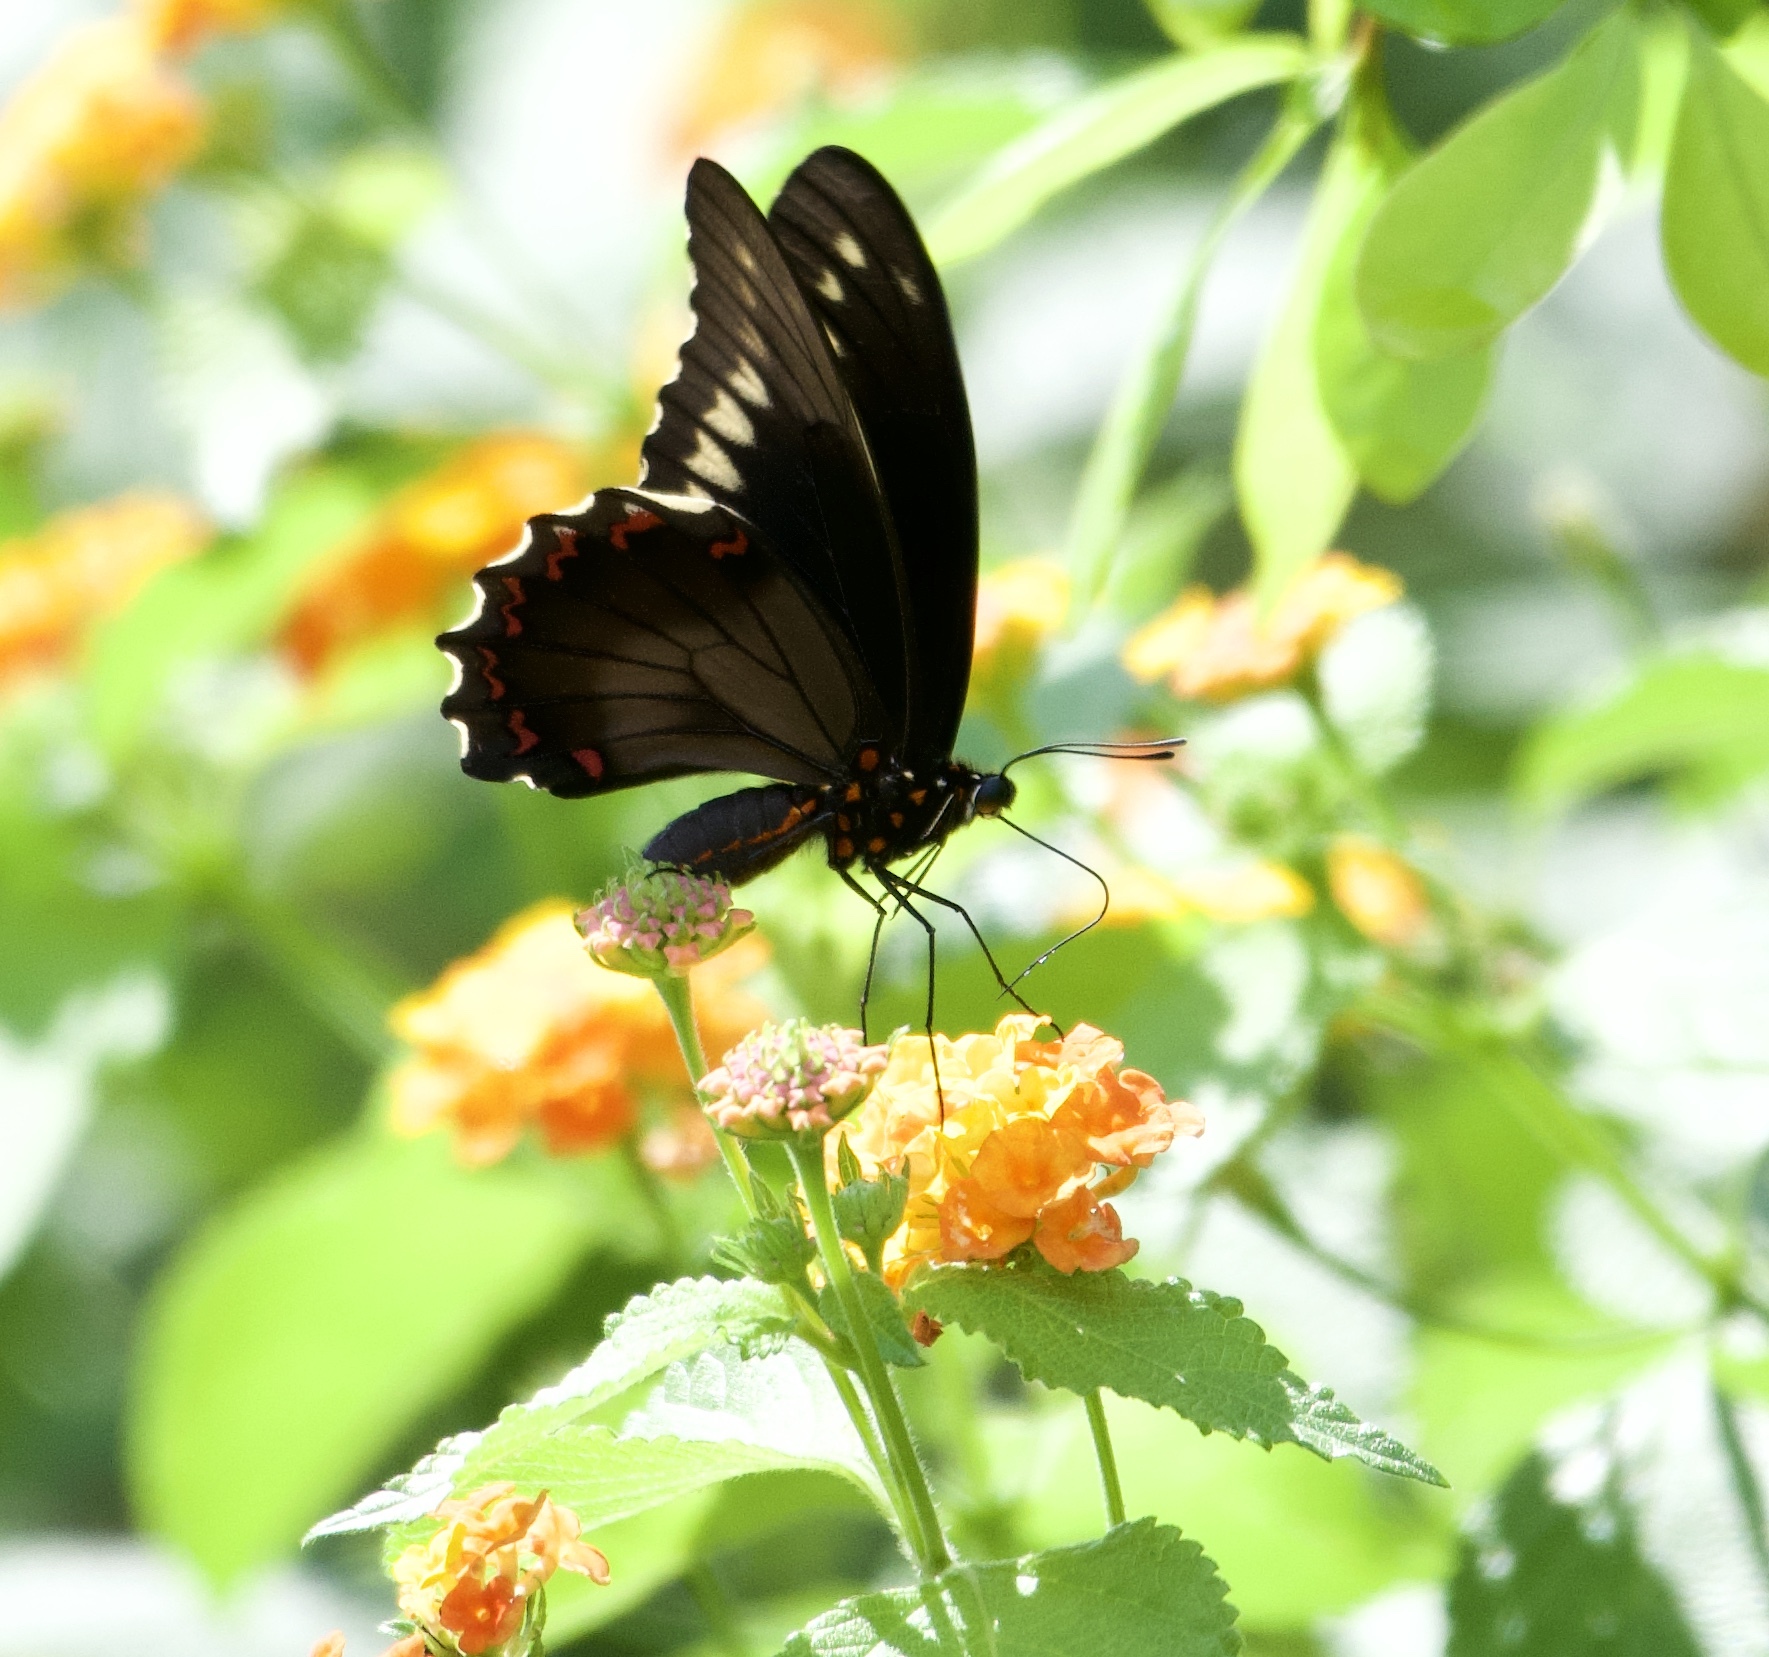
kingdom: Animalia
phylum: Arthropoda
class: Insecta
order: Lepidoptera
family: Papilionidae
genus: Battus
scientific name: Battus polydamas
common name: Polydamas swallowtail
